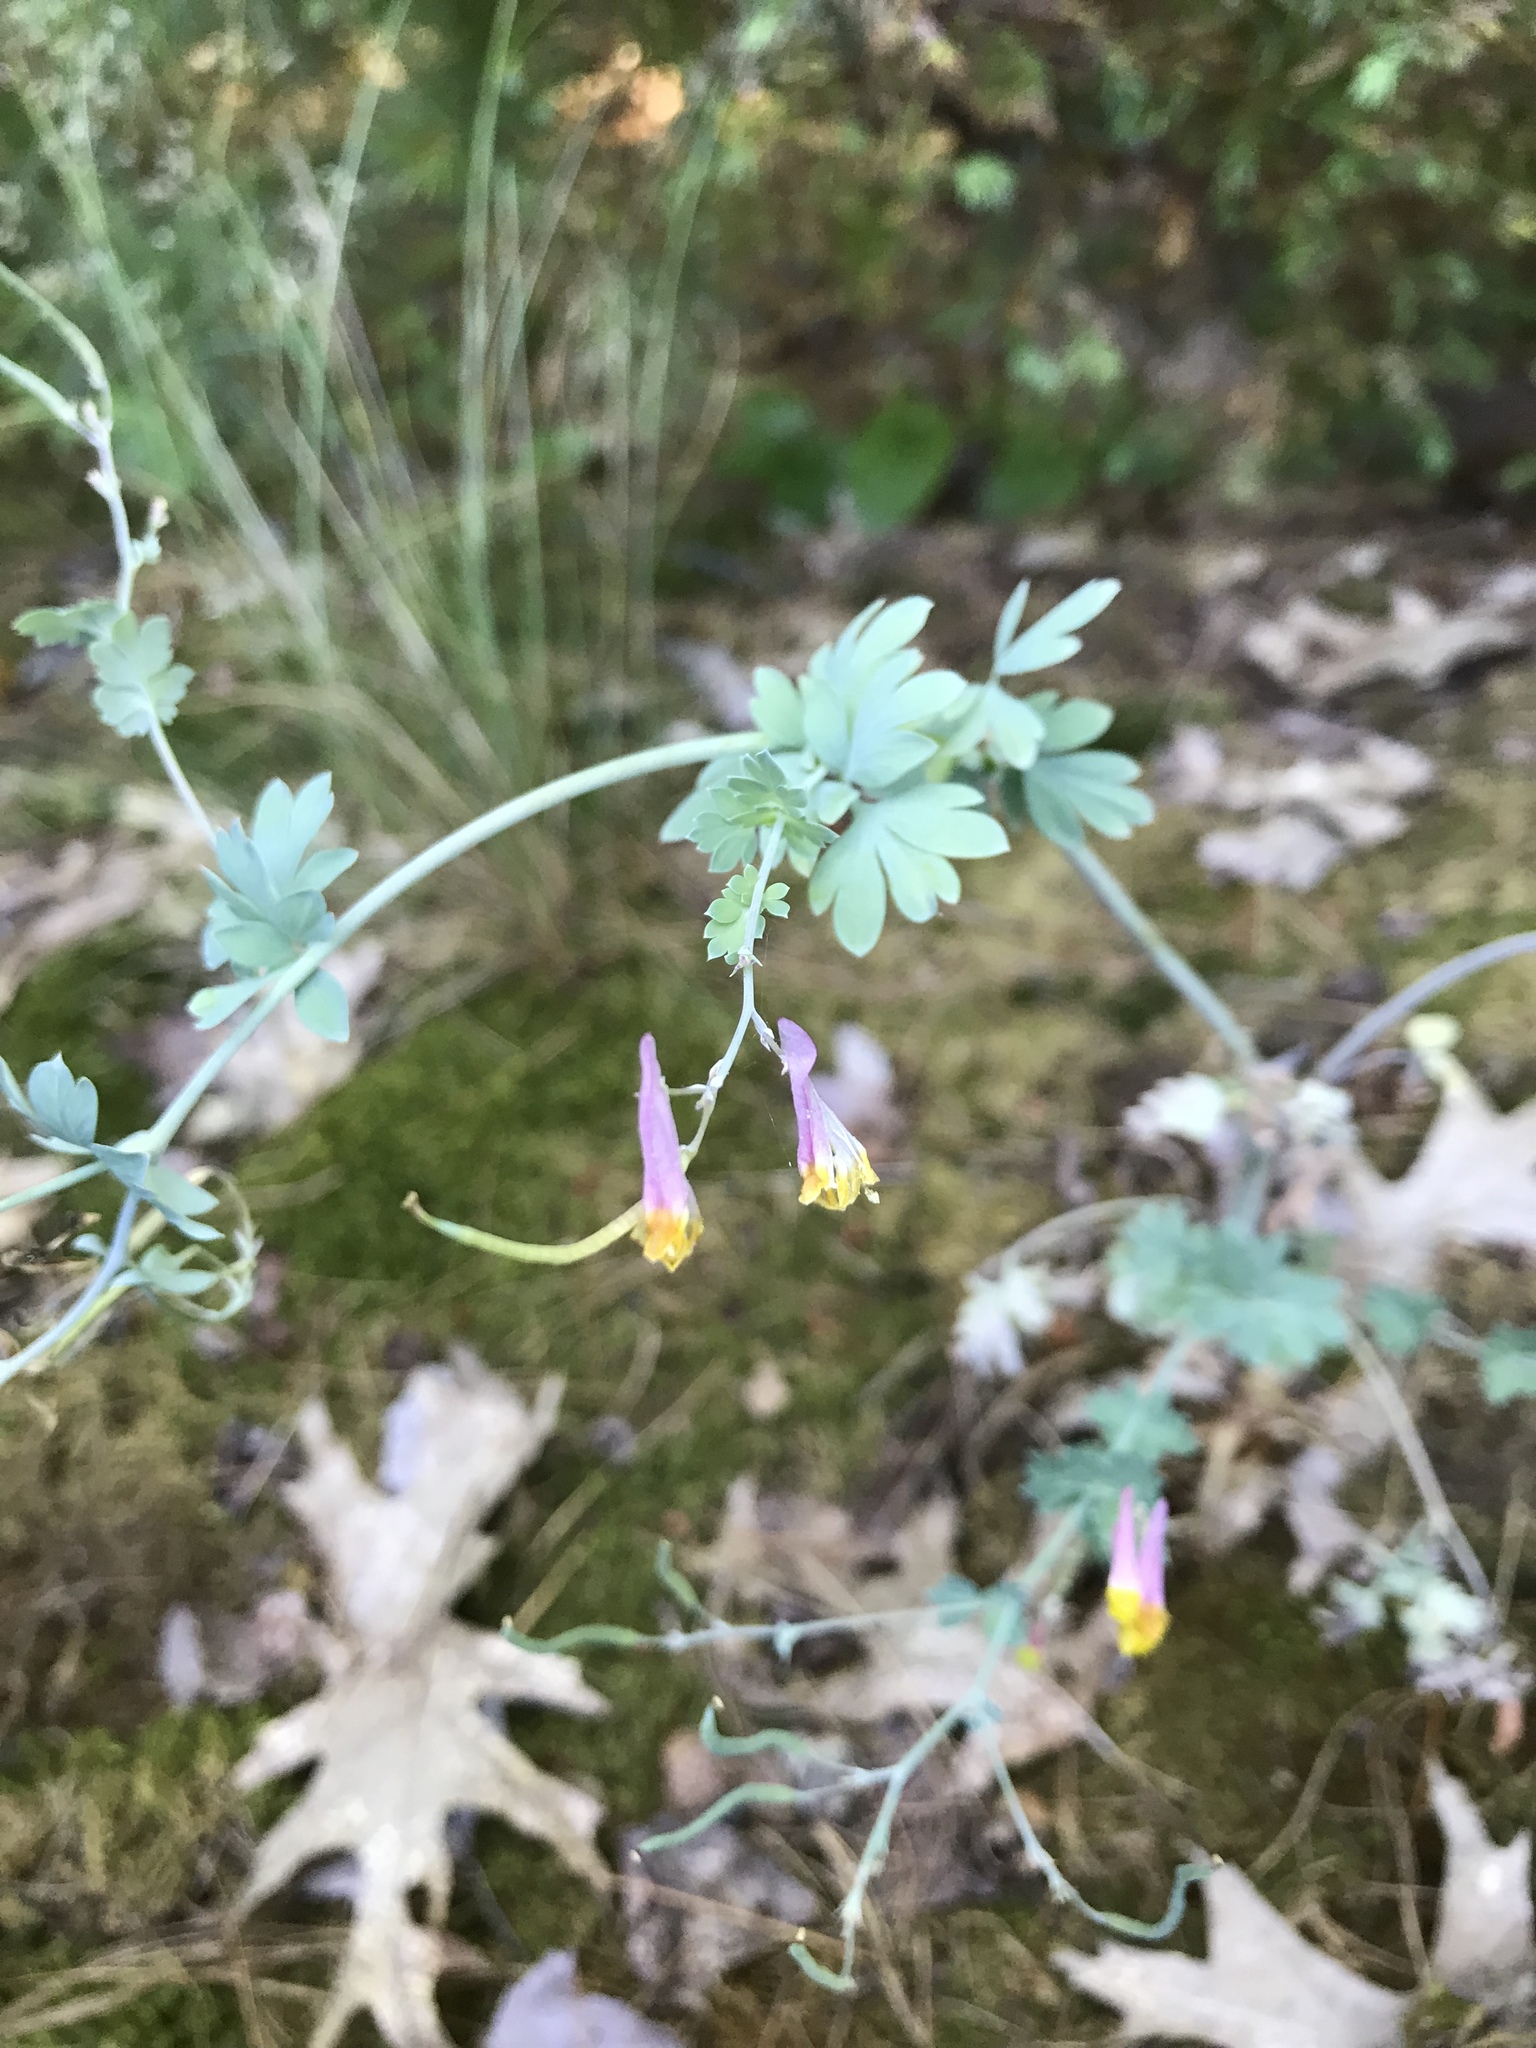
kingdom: Plantae
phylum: Tracheophyta
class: Magnoliopsida
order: Ranunculales
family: Papaveraceae
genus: Capnoides
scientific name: Capnoides sempervirens
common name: Rock harlequin
